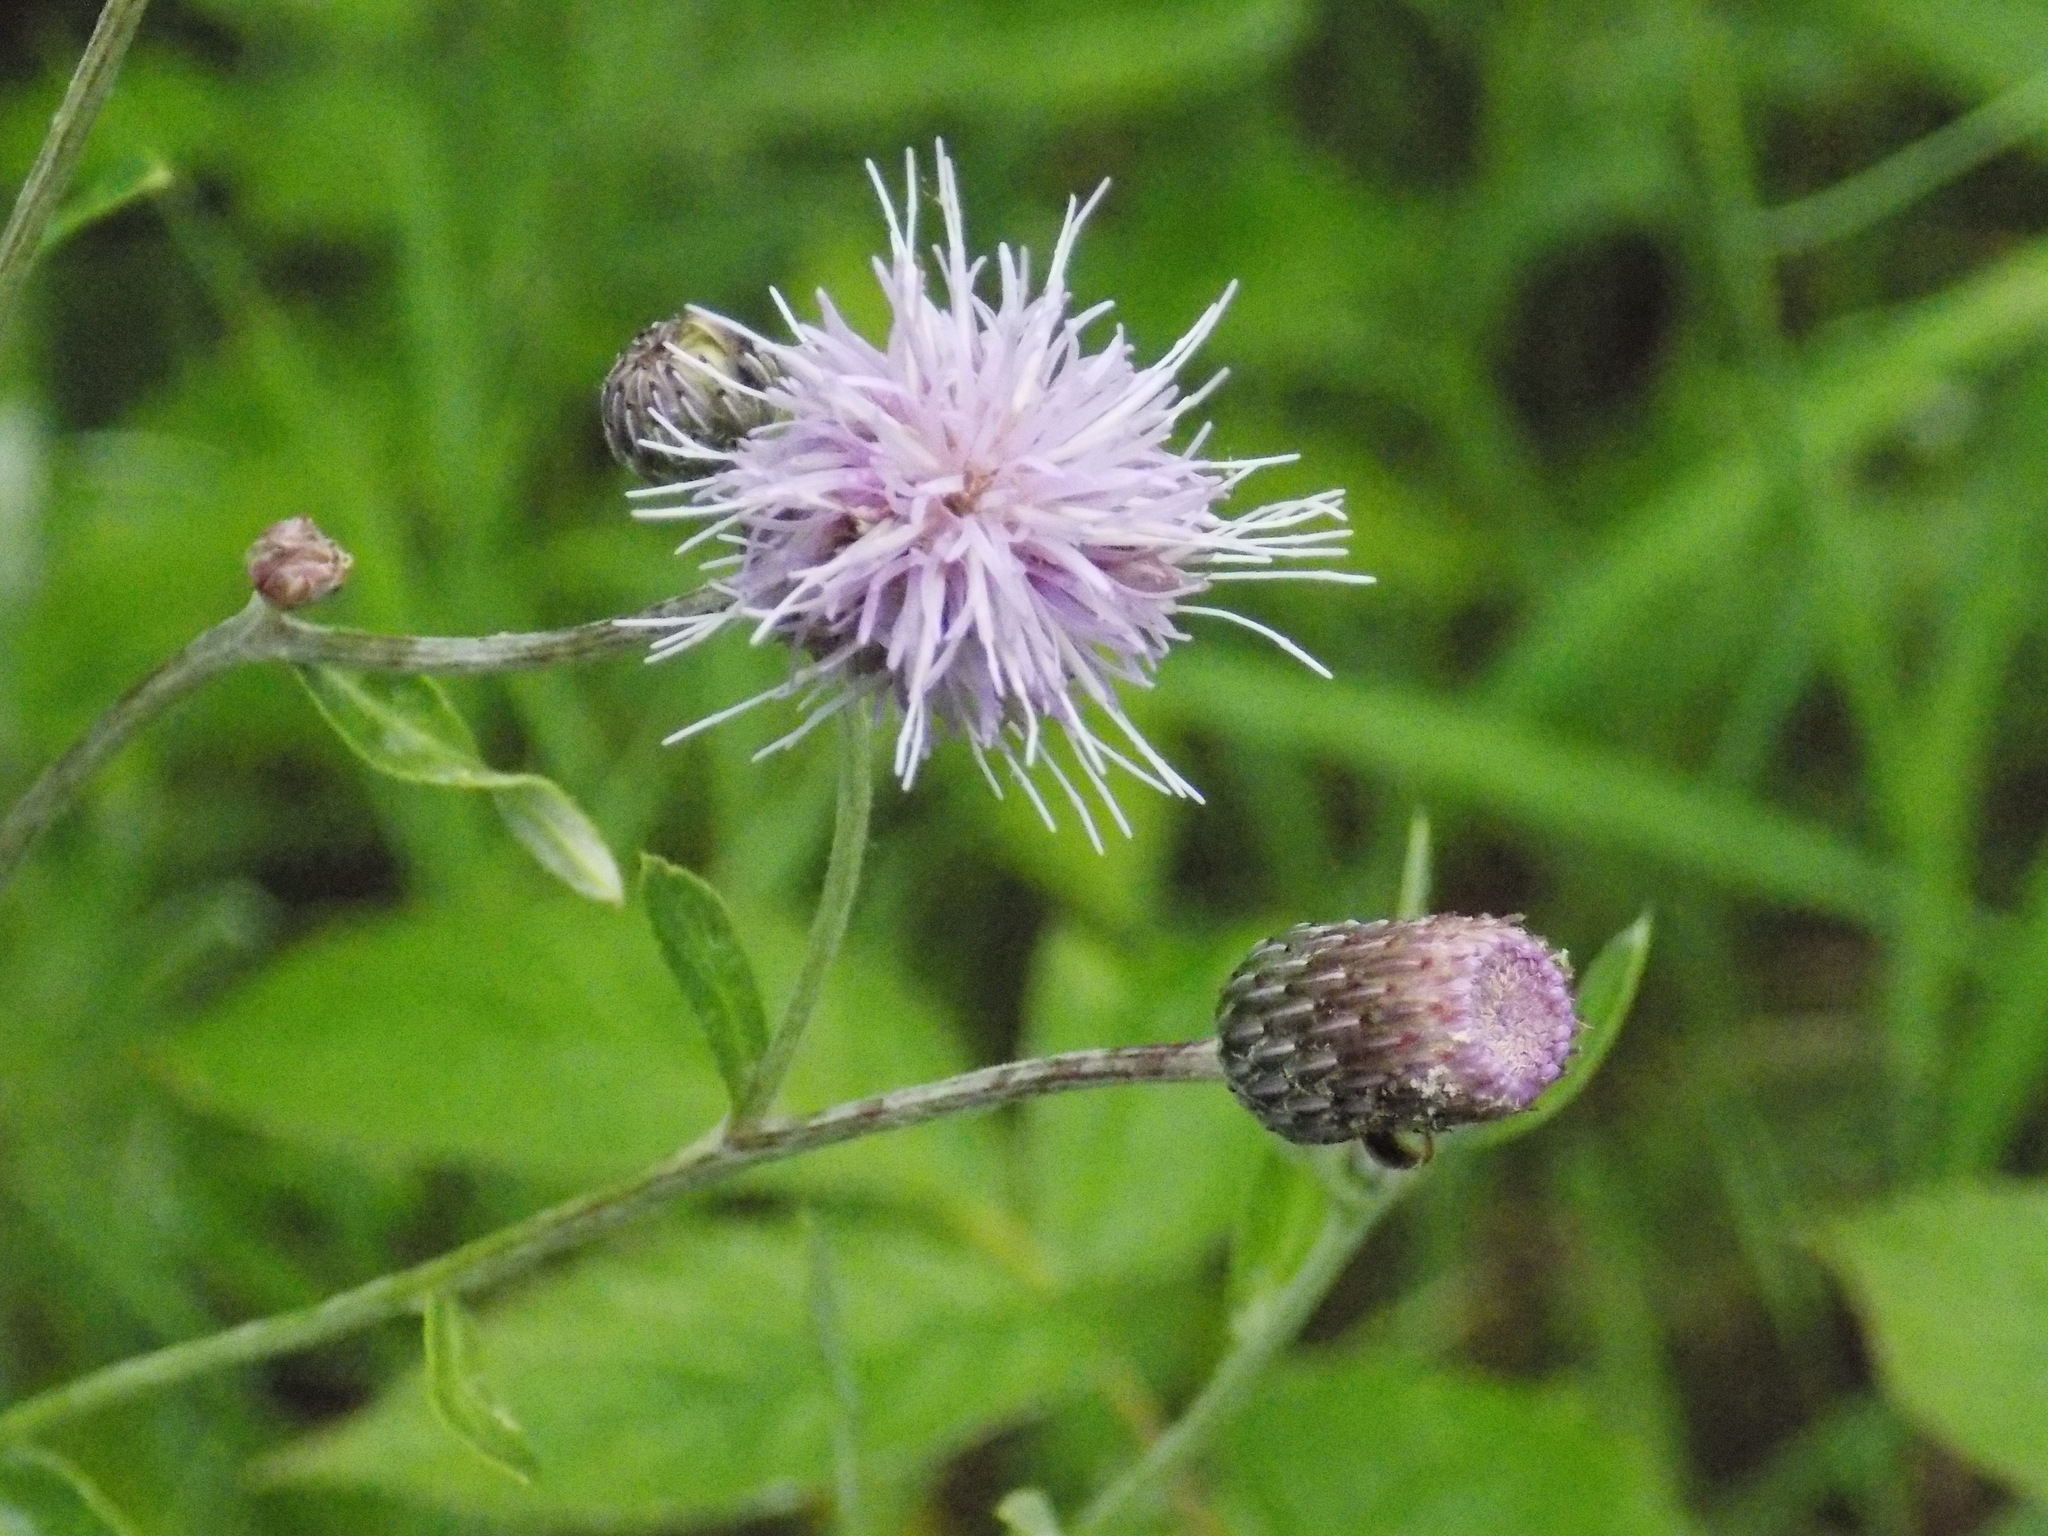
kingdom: Plantae
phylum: Tracheophyta
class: Magnoliopsida
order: Asterales
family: Asteraceae
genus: Cirsium
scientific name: Cirsium arvense
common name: Creeping thistle
